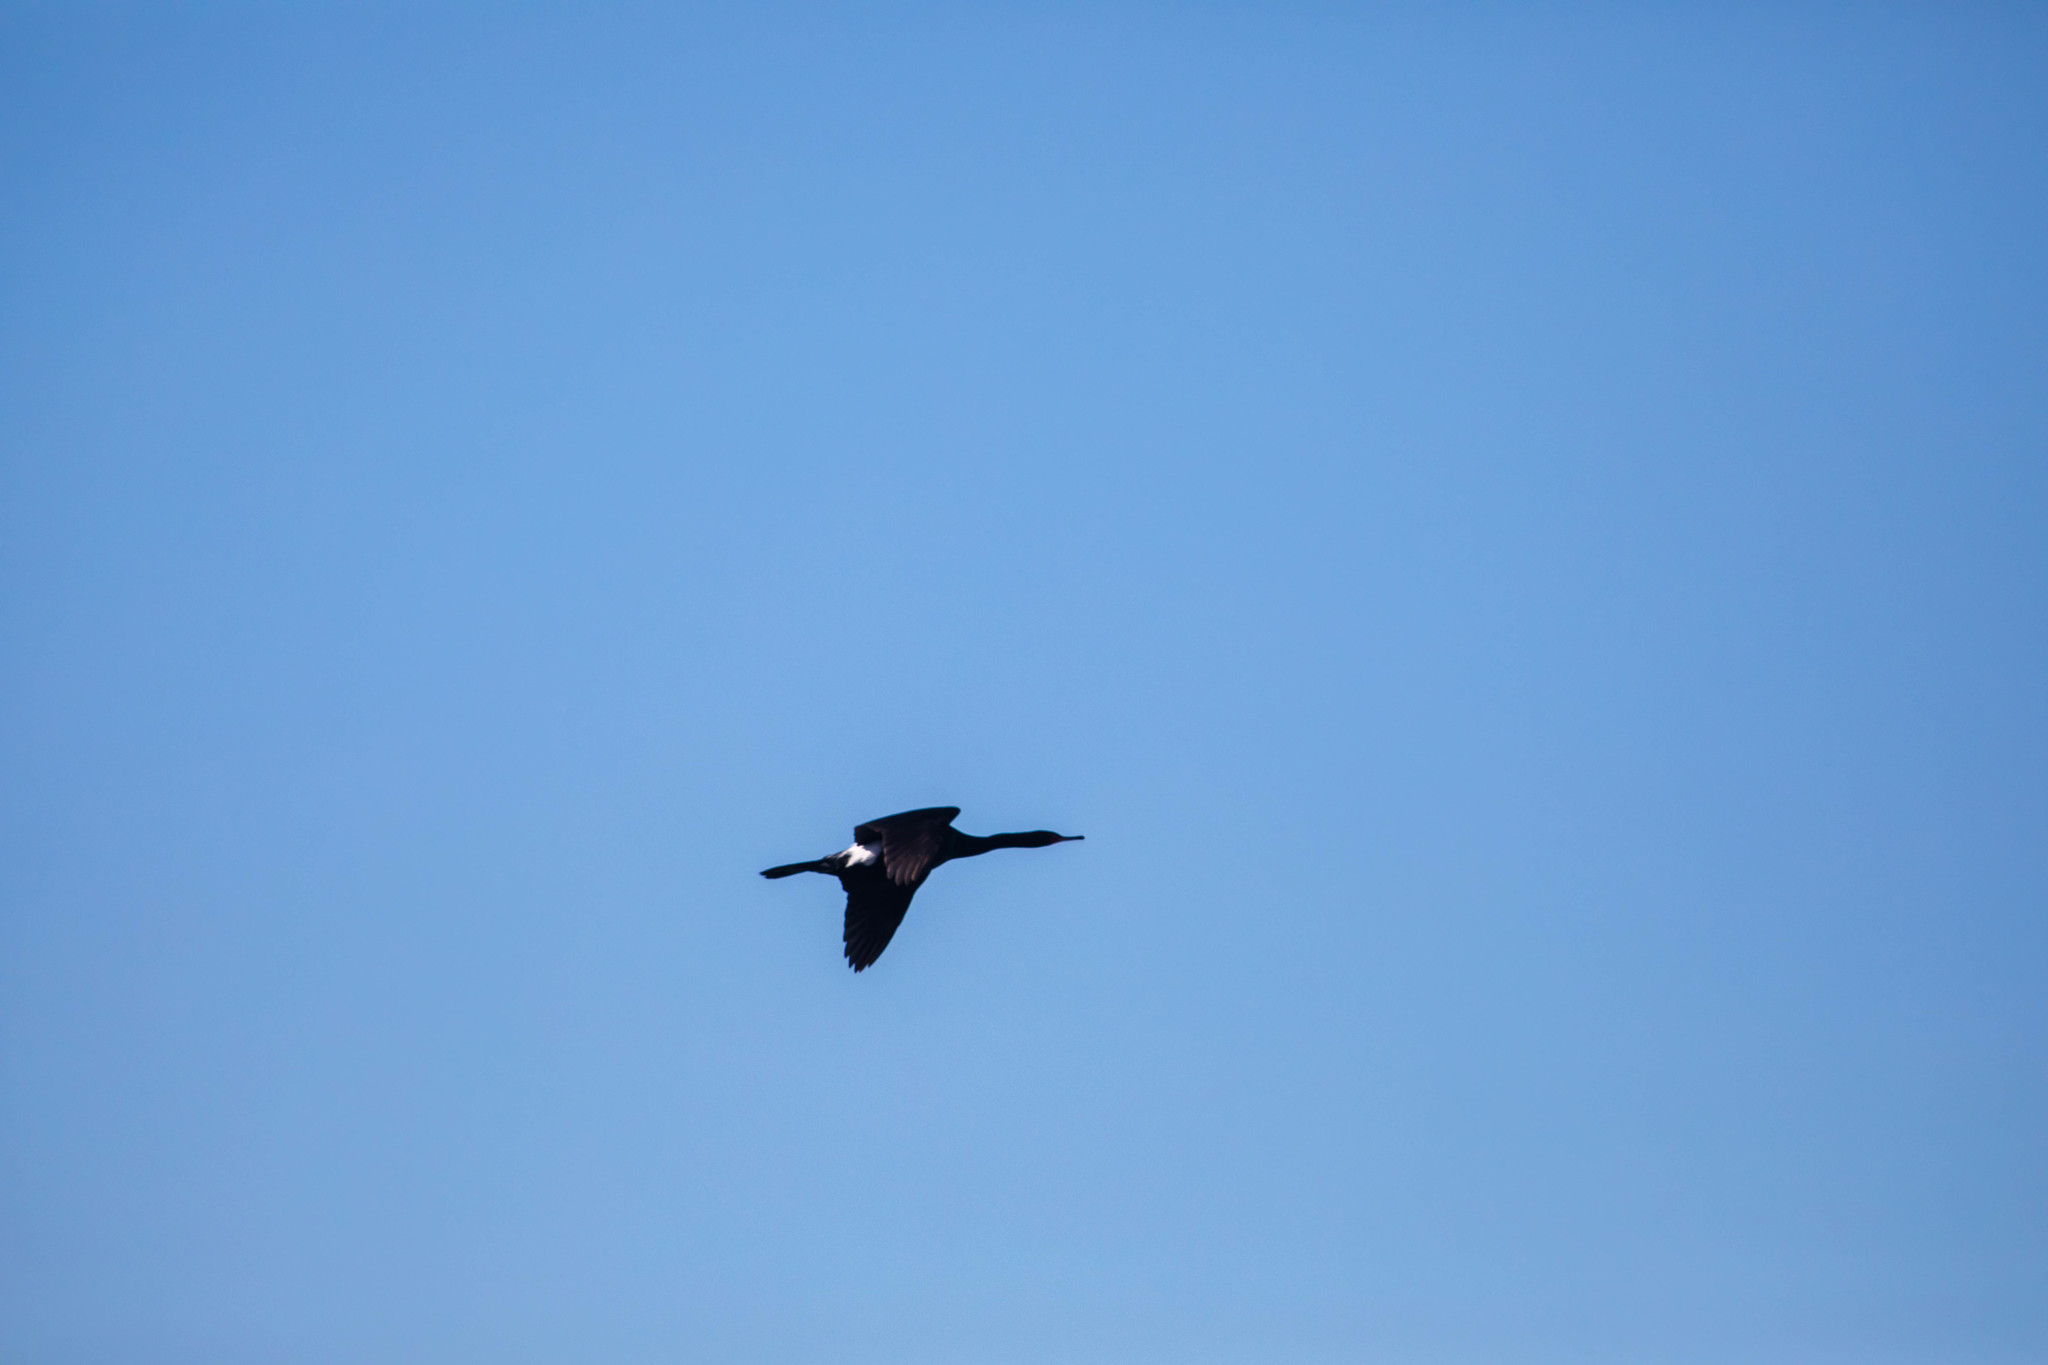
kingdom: Animalia
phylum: Chordata
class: Aves
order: Suliformes
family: Phalacrocoracidae
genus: Phalacrocorax
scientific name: Phalacrocorax pelagicus
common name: Pelagic cormorant
